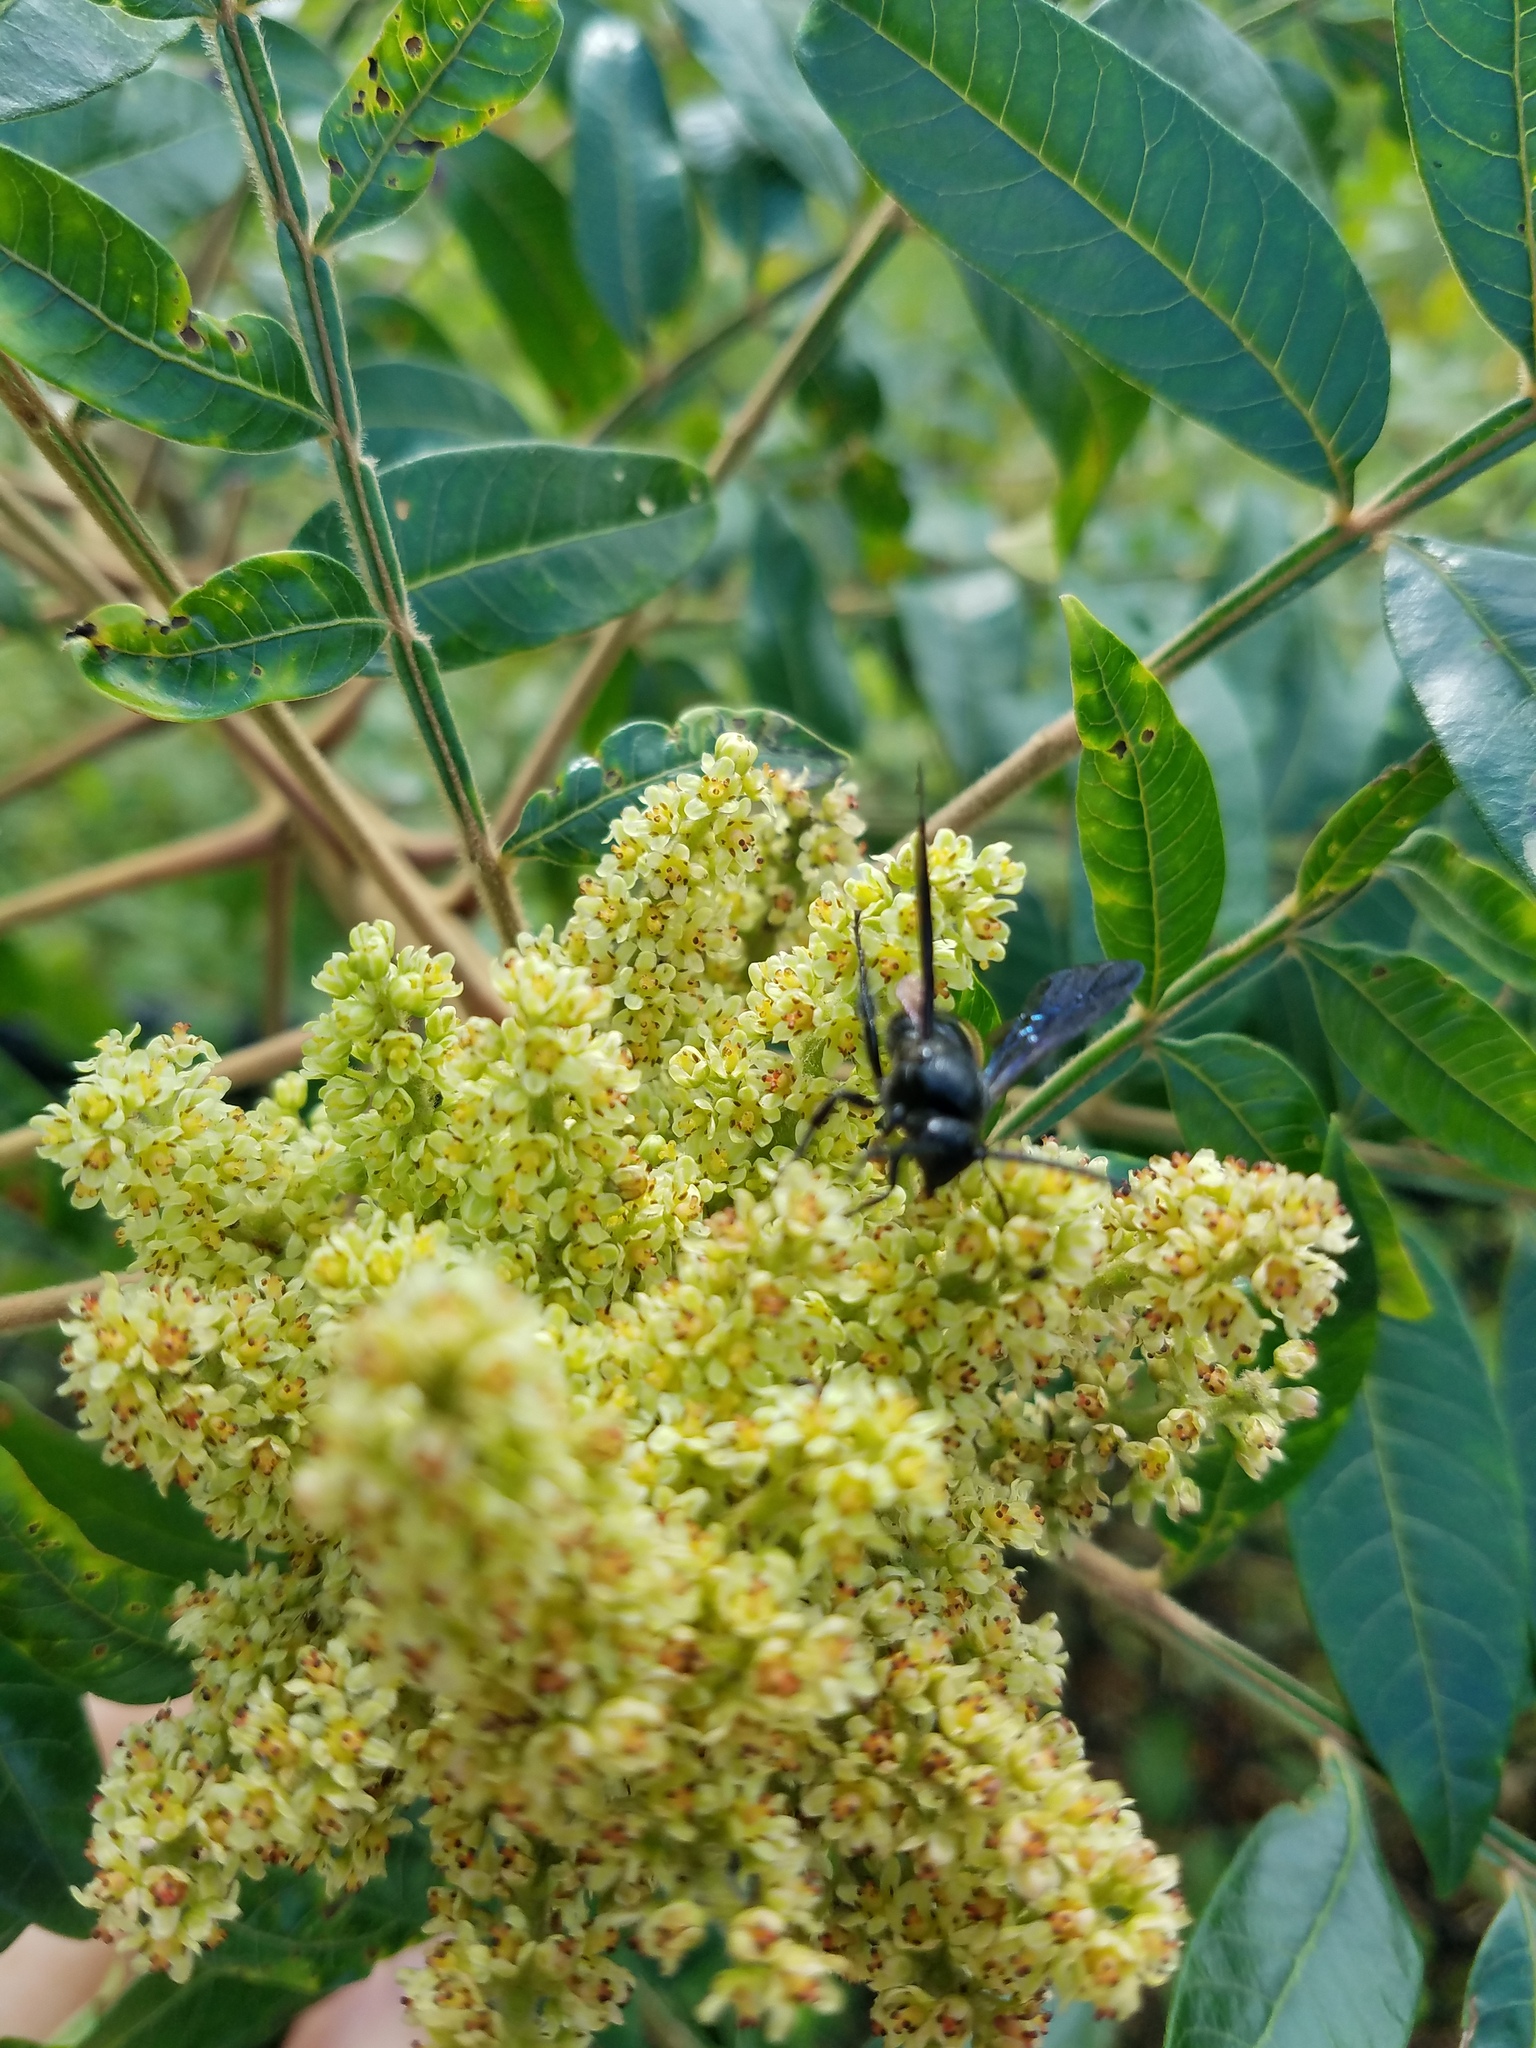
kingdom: Plantae
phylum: Tracheophyta
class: Magnoliopsida
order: Sapindales
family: Anacardiaceae
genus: Rhus
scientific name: Rhus copallina
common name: Shining sumac
